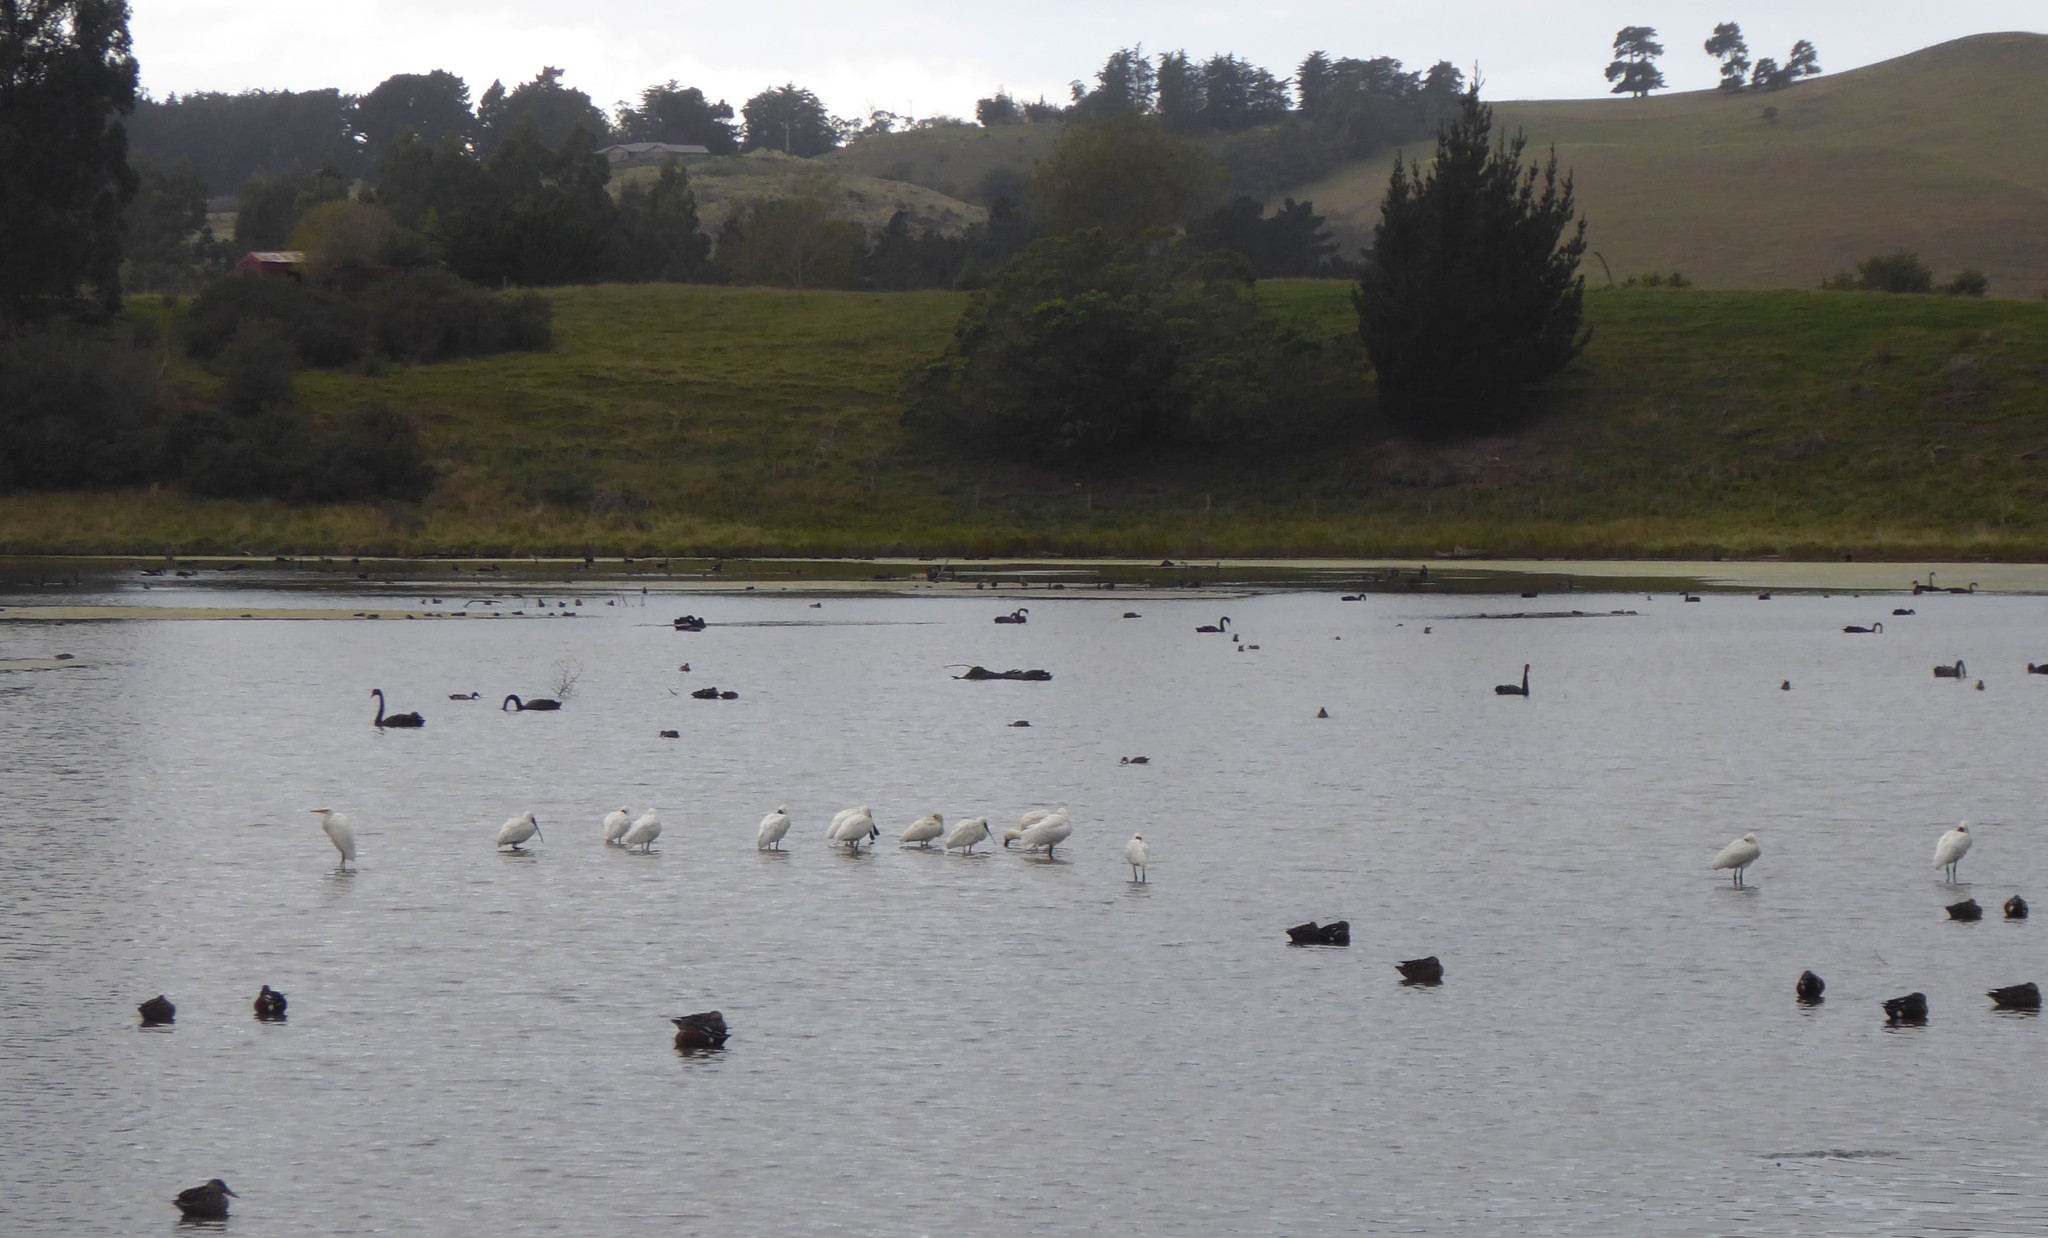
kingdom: Animalia
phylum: Chordata
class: Aves
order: Pelecaniformes
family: Threskiornithidae
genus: Platalea
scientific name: Platalea regia
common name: Royal spoonbill
